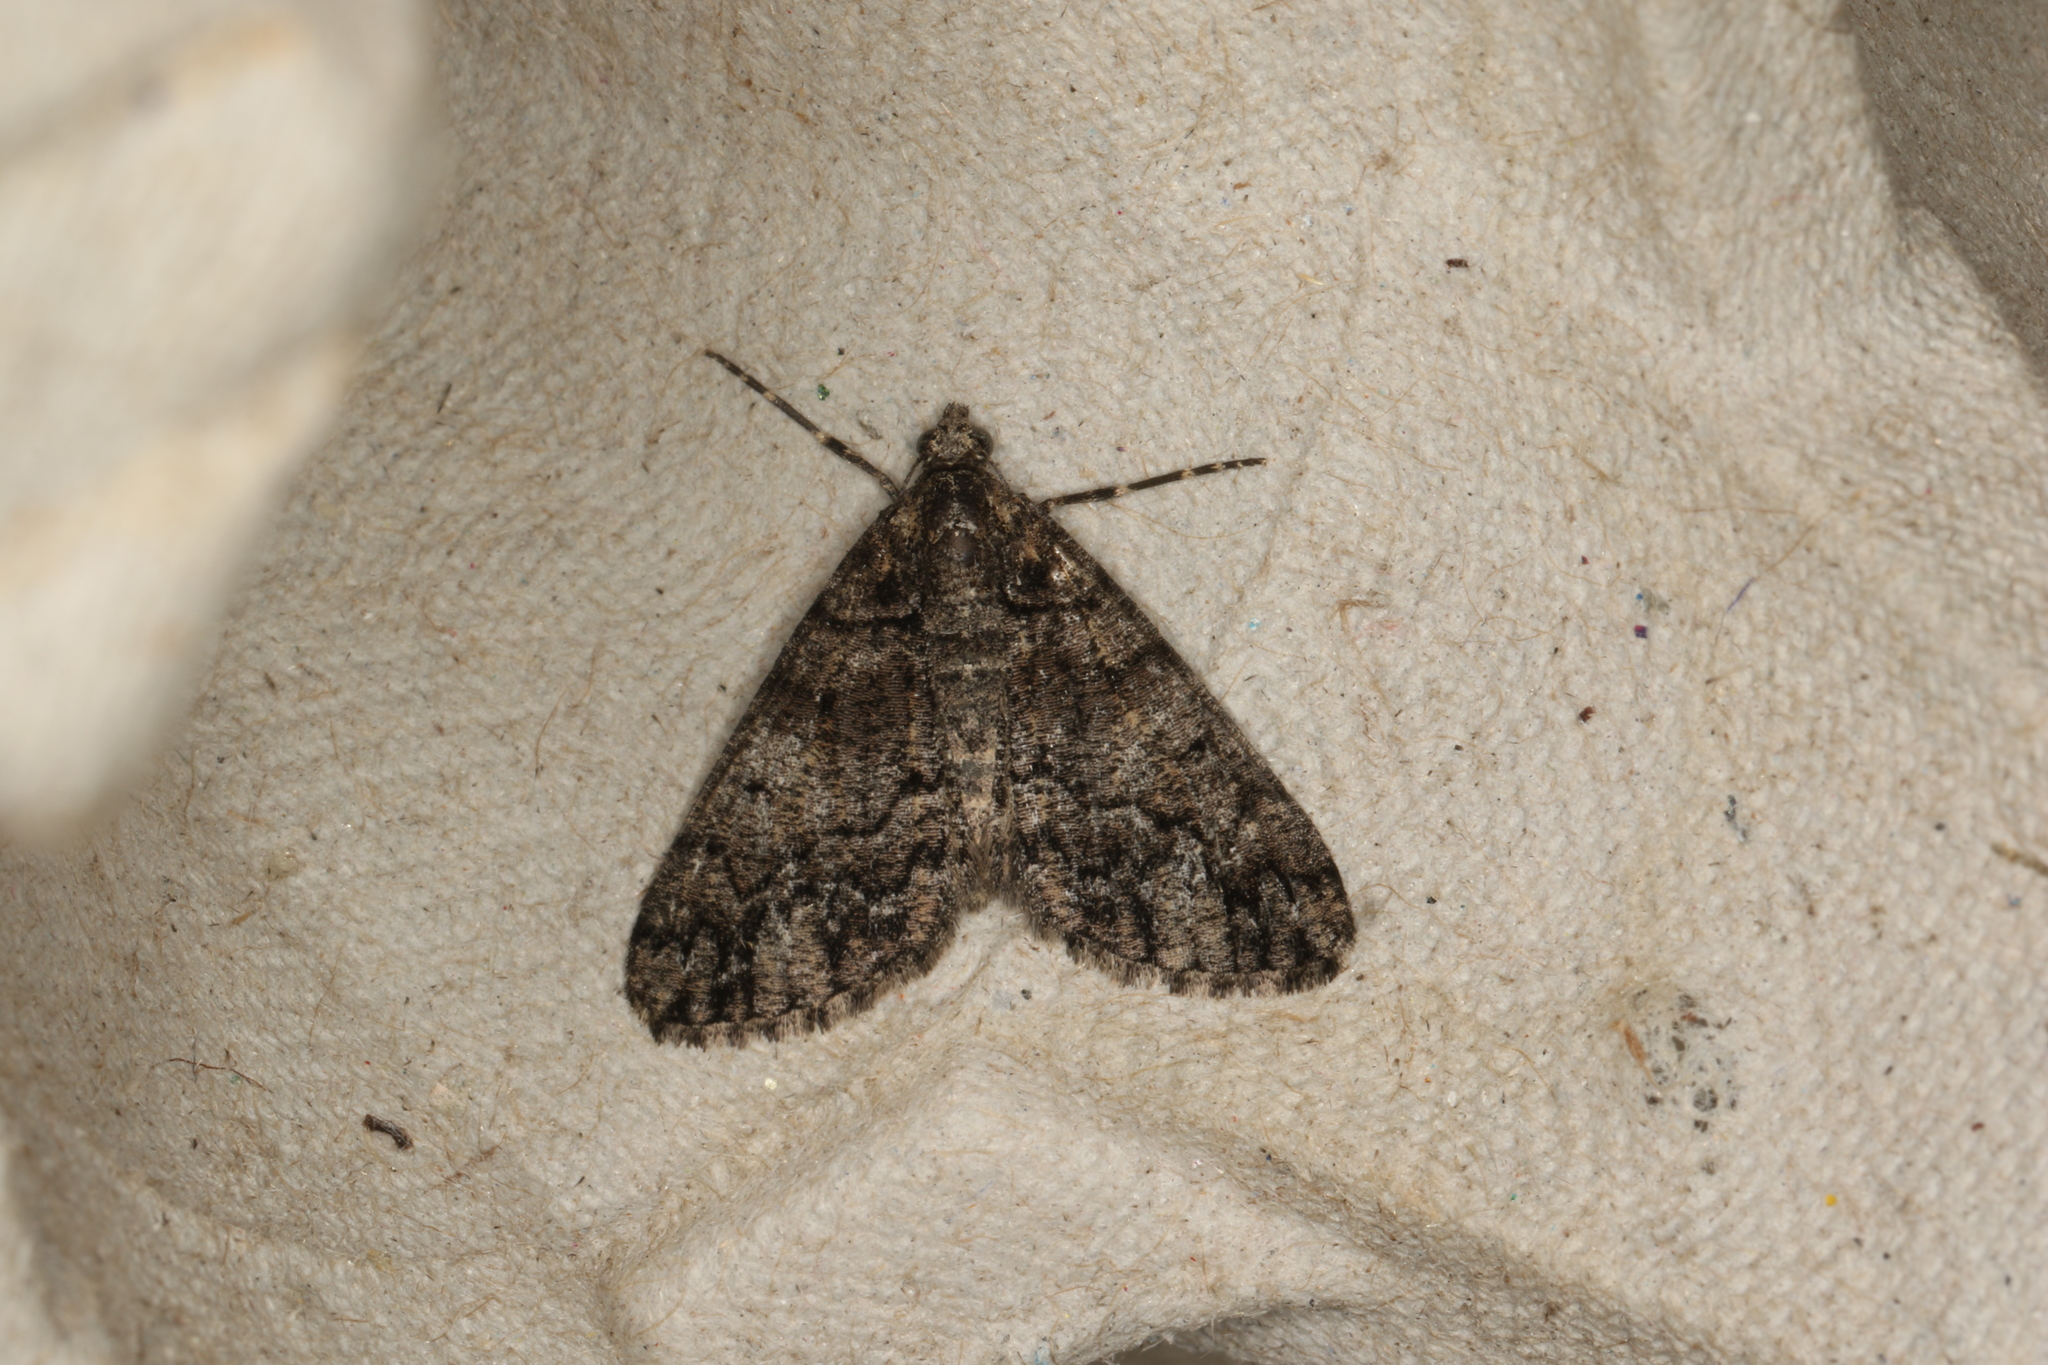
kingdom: Animalia
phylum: Arthropoda
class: Insecta
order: Lepidoptera
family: Geometridae
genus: Lipogya
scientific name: Lipogya exprimataria
